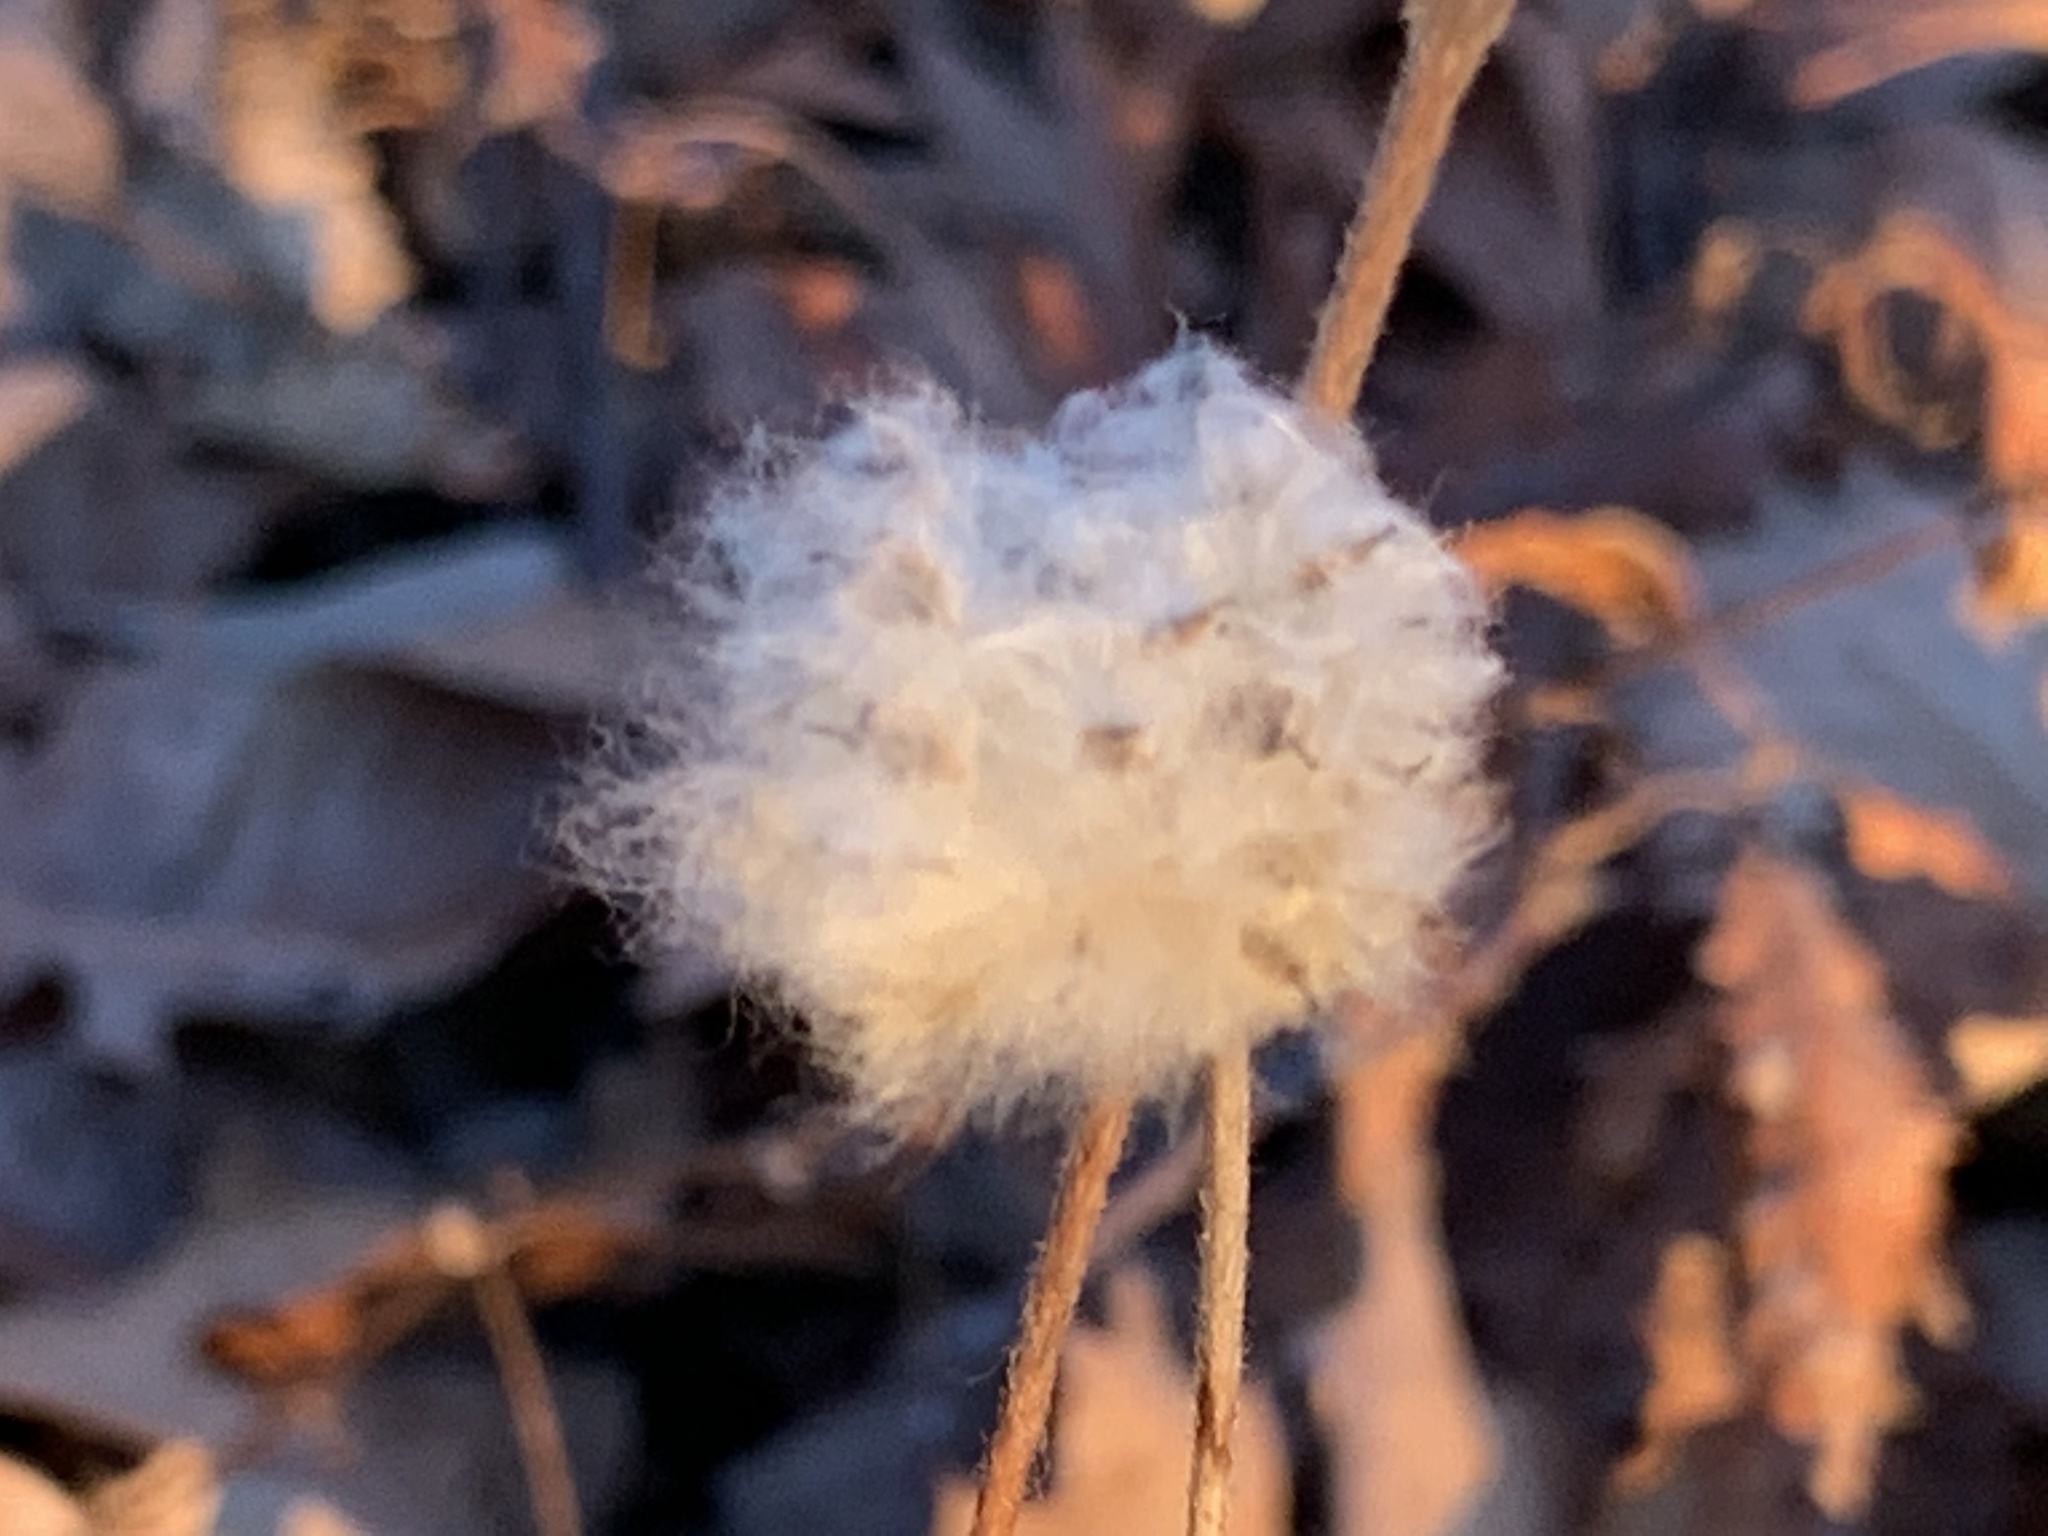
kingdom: Plantae
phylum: Tracheophyta
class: Magnoliopsida
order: Ranunculales
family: Ranunculaceae
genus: Anemone
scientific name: Anemone virginiana
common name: Tall anemone
